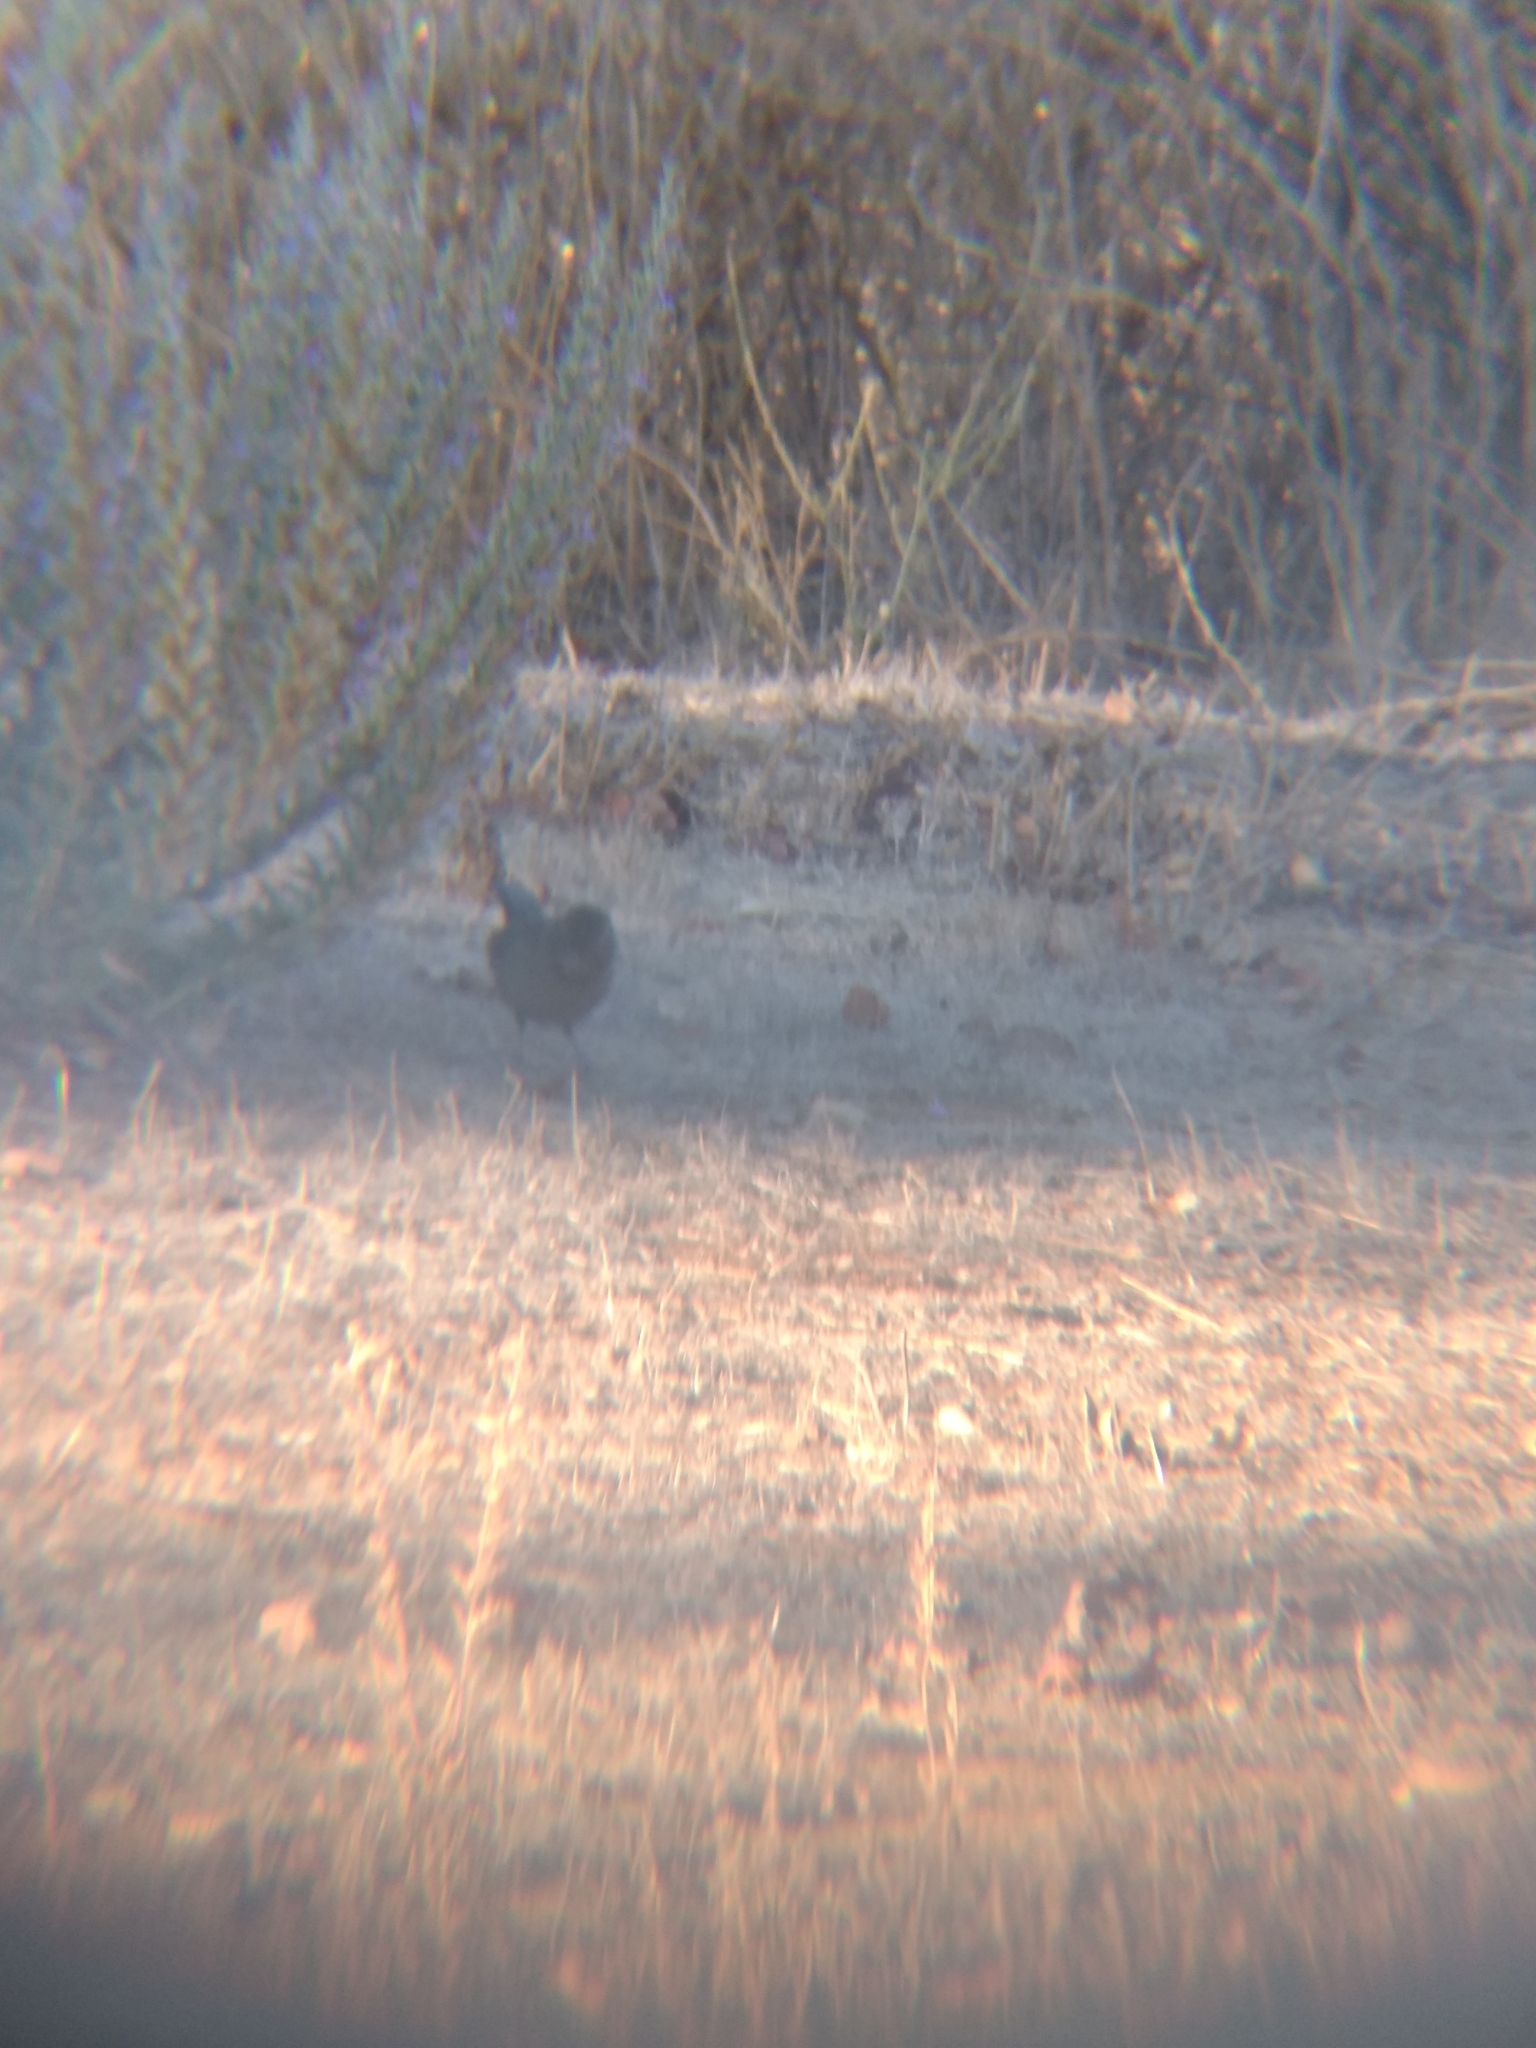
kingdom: Animalia
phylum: Chordata
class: Aves
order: Passeriformes
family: Passerellidae
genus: Melozone
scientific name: Melozone crissalis
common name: California towhee
